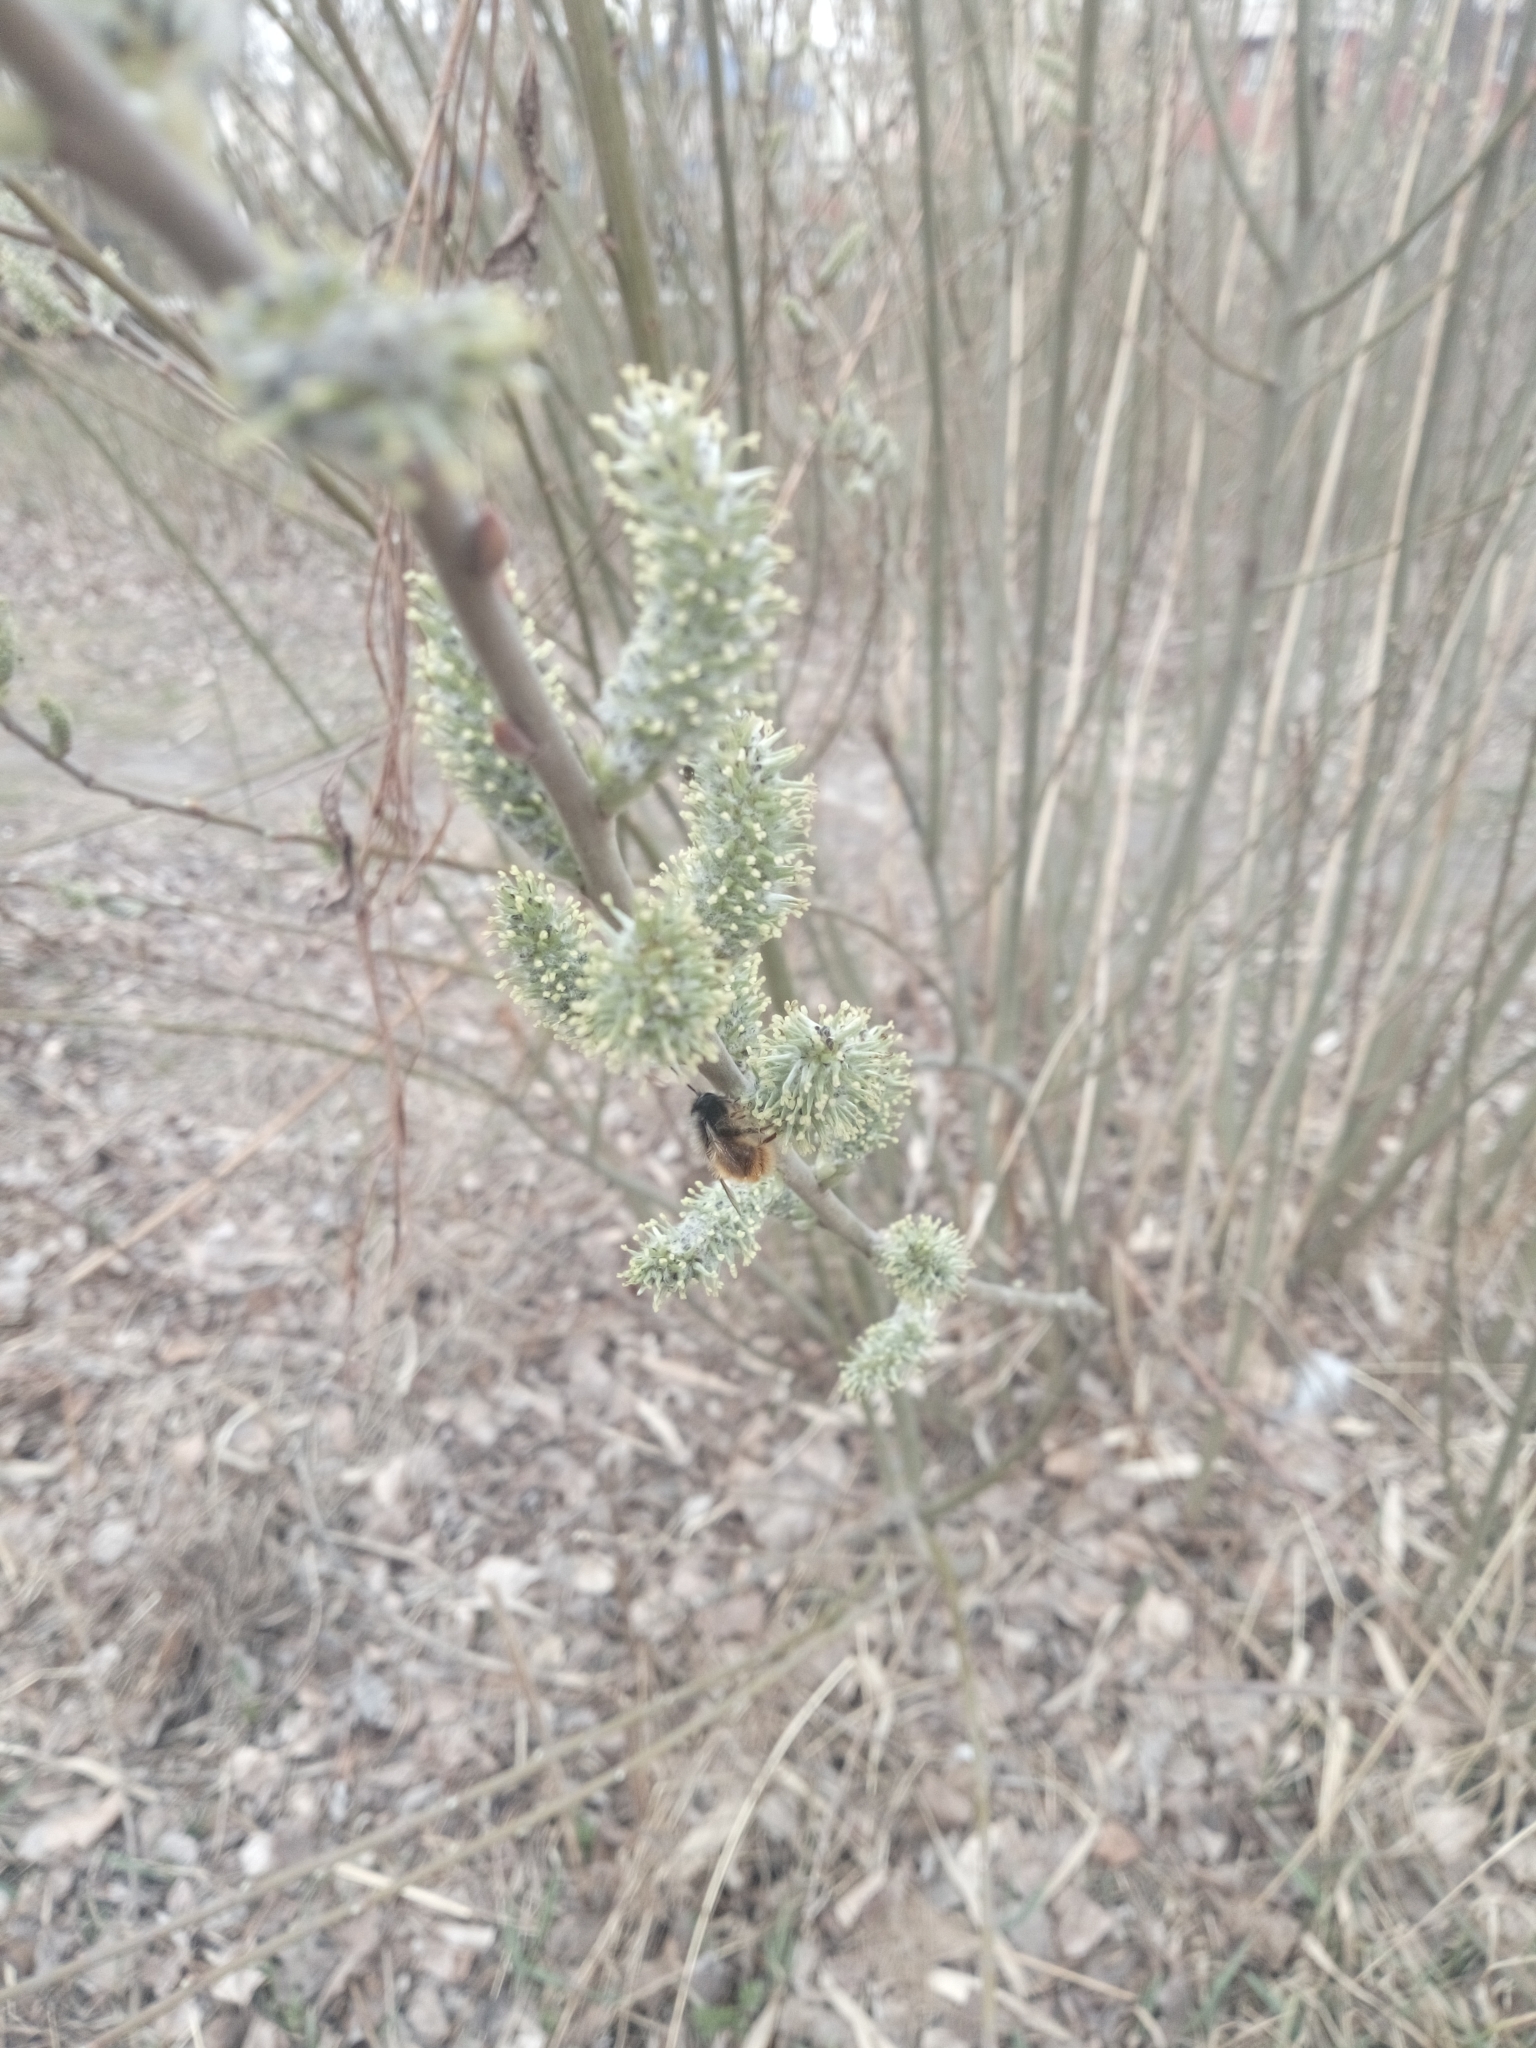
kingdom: Animalia
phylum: Arthropoda
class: Insecta
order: Hymenoptera
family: Megachilidae
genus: Osmia
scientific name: Osmia cornuta
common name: Mason bee
